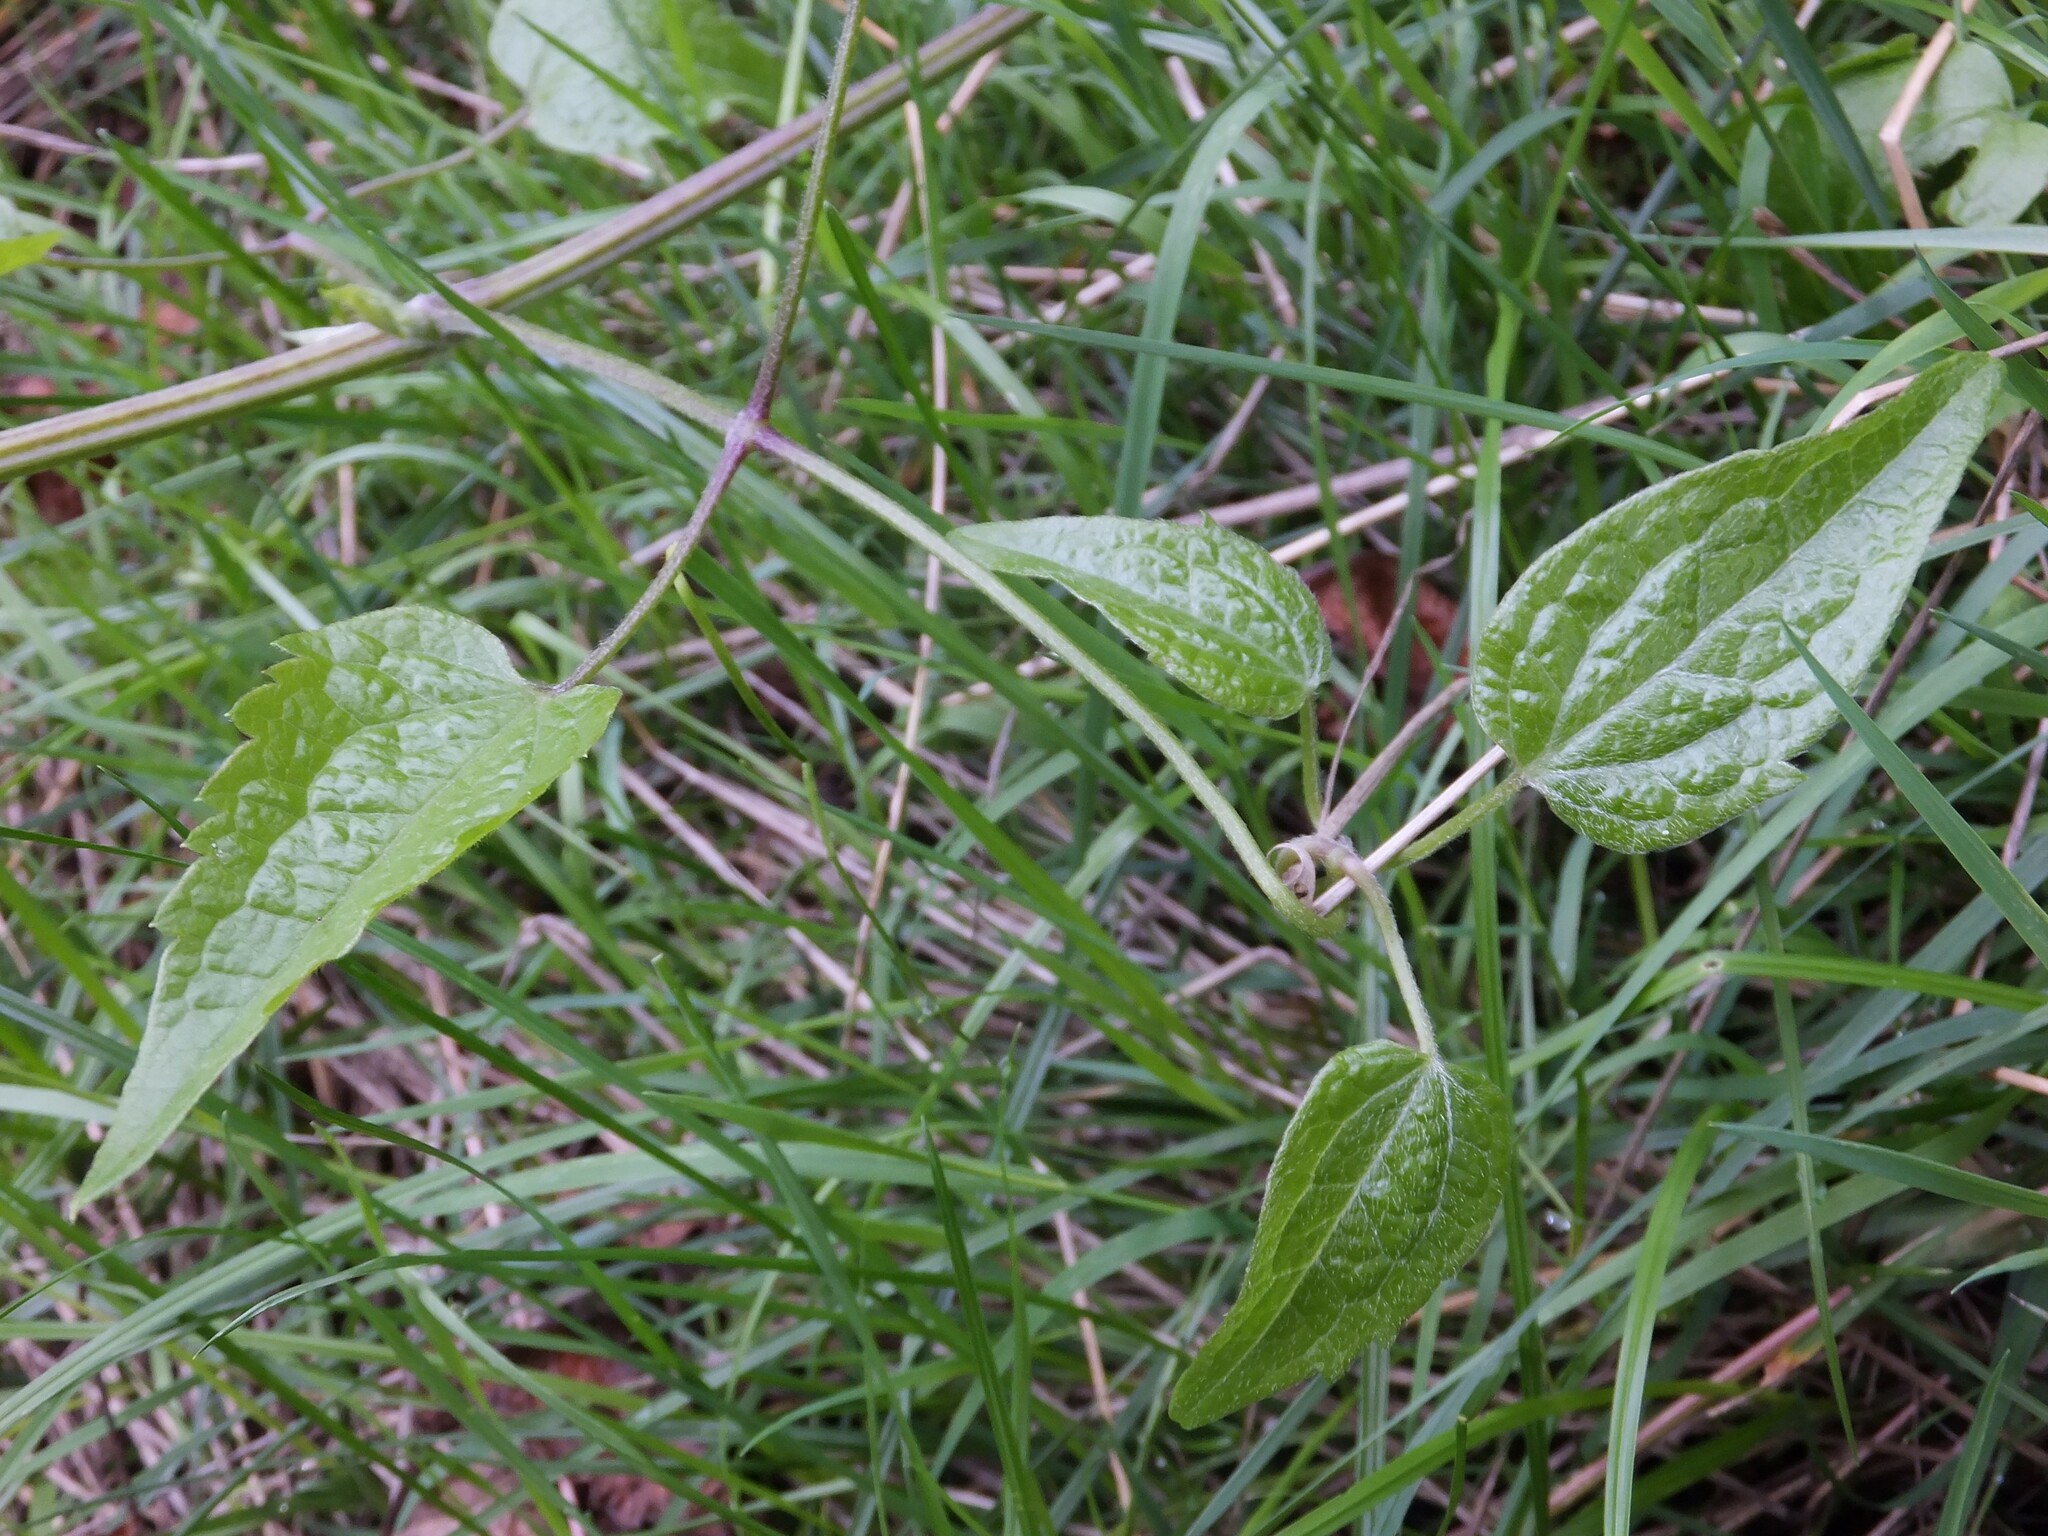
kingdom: Plantae
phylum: Tracheophyta
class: Magnoliopsida
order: Ranunculales
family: Ranunculaceae
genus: Clematis
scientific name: Clematis vitalba
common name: Evergreen clematis
